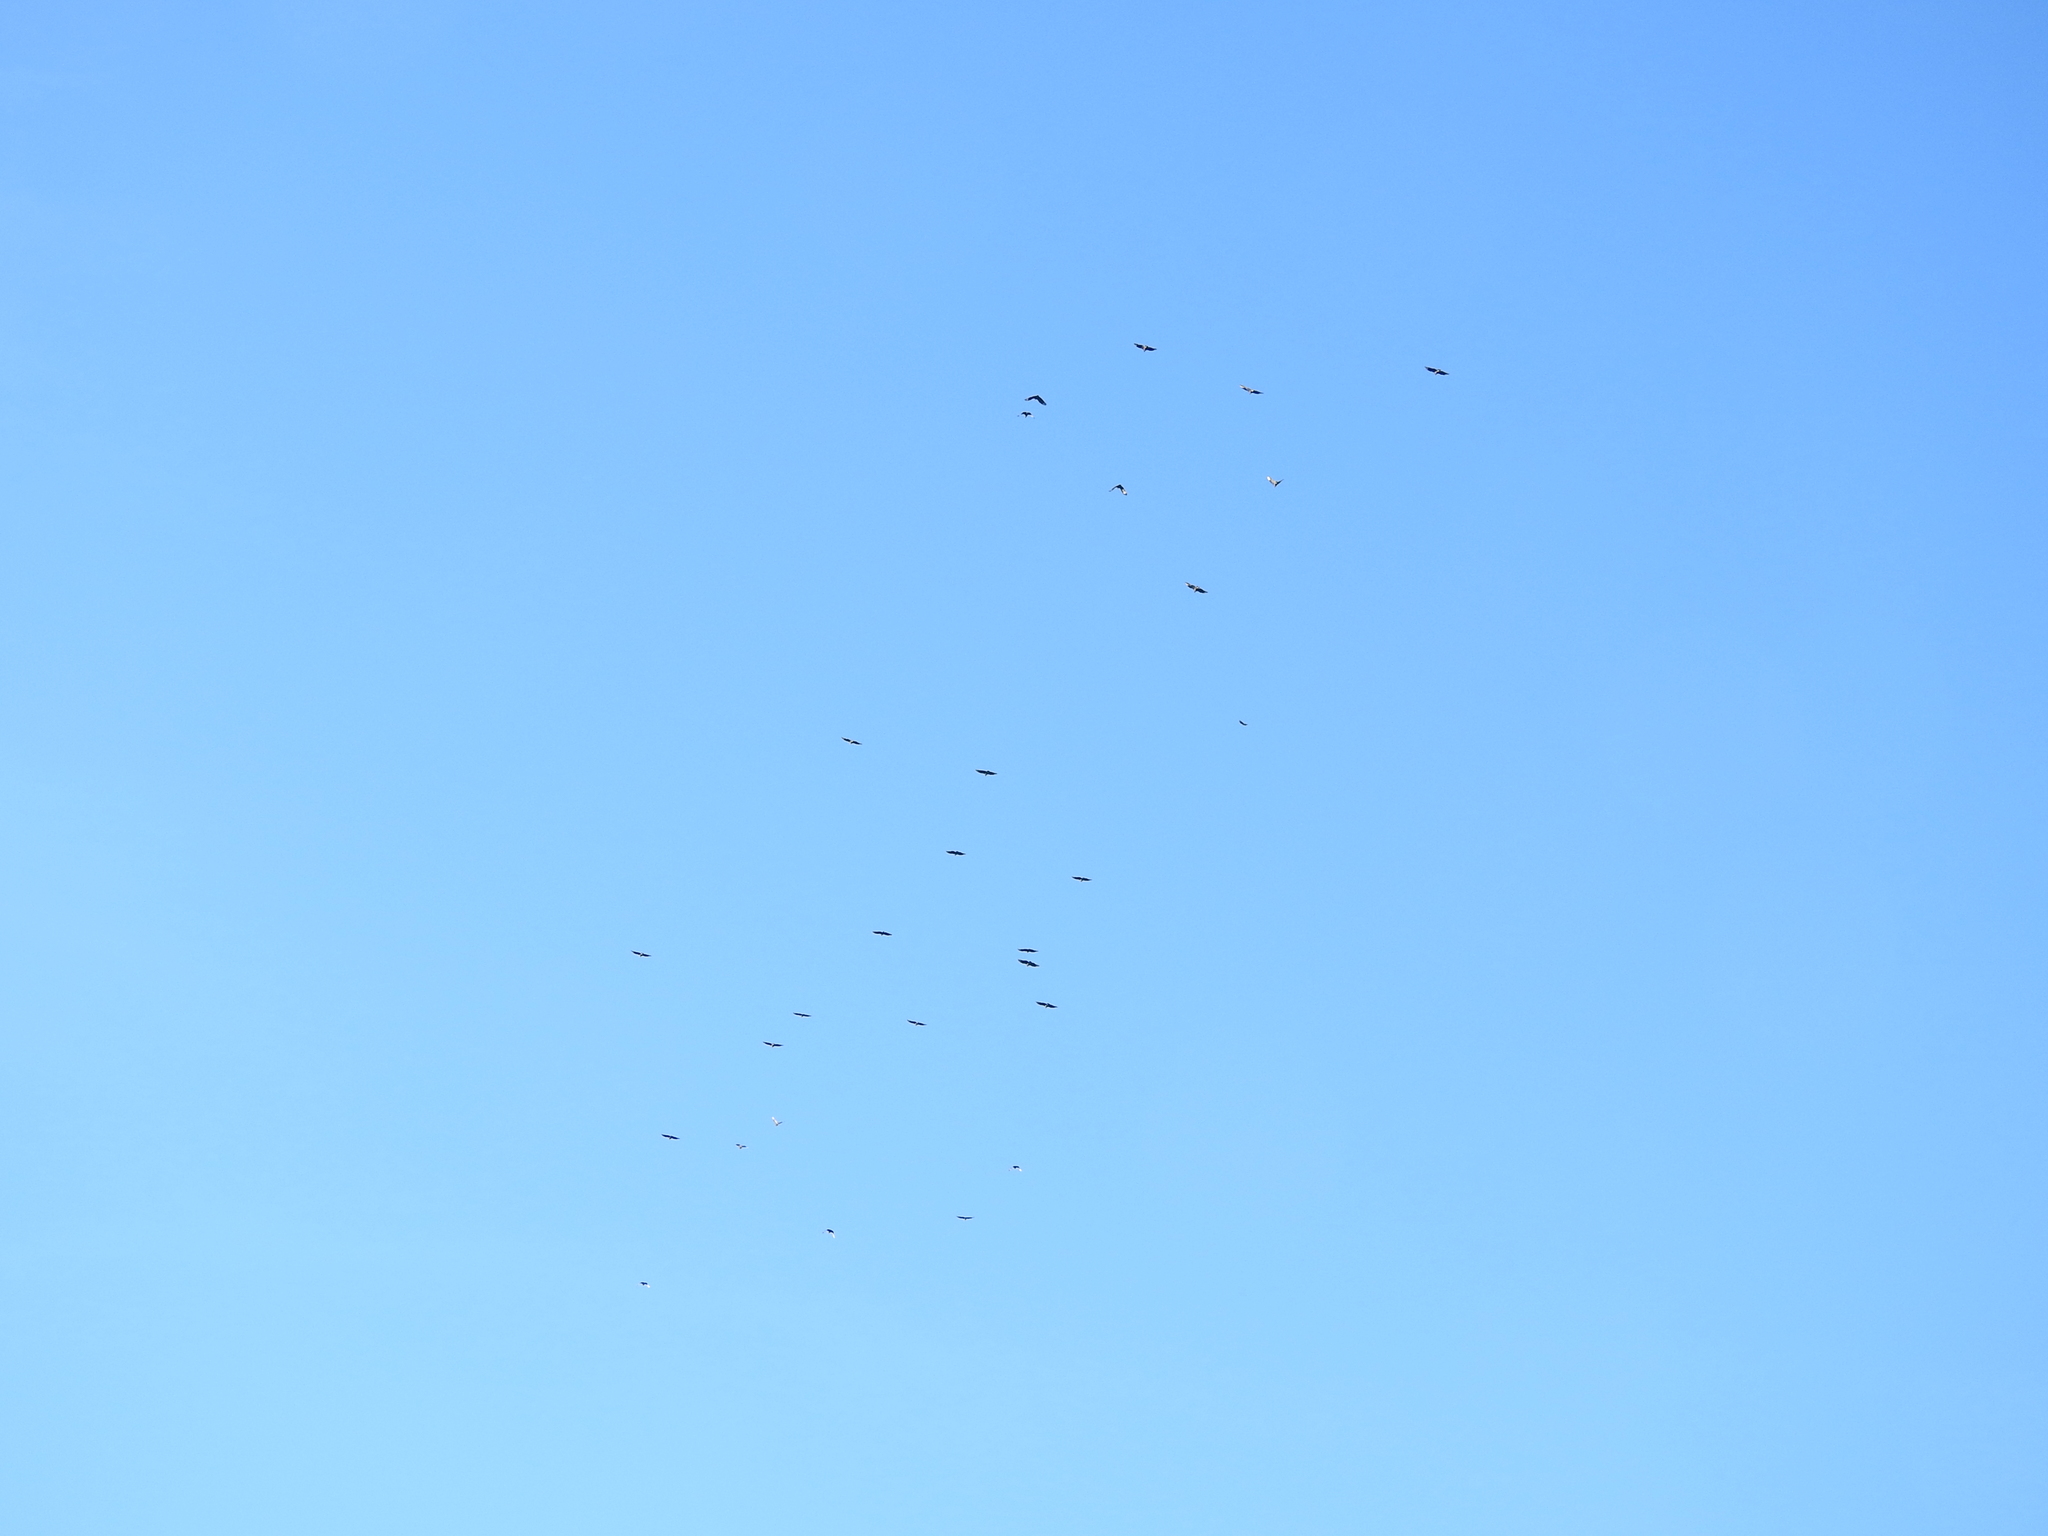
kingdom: Animalia
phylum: Chordata
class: Aves
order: Accipitriformes
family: Cathartidae
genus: Cathartes
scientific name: Cathartes aura
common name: Turkey vulture
